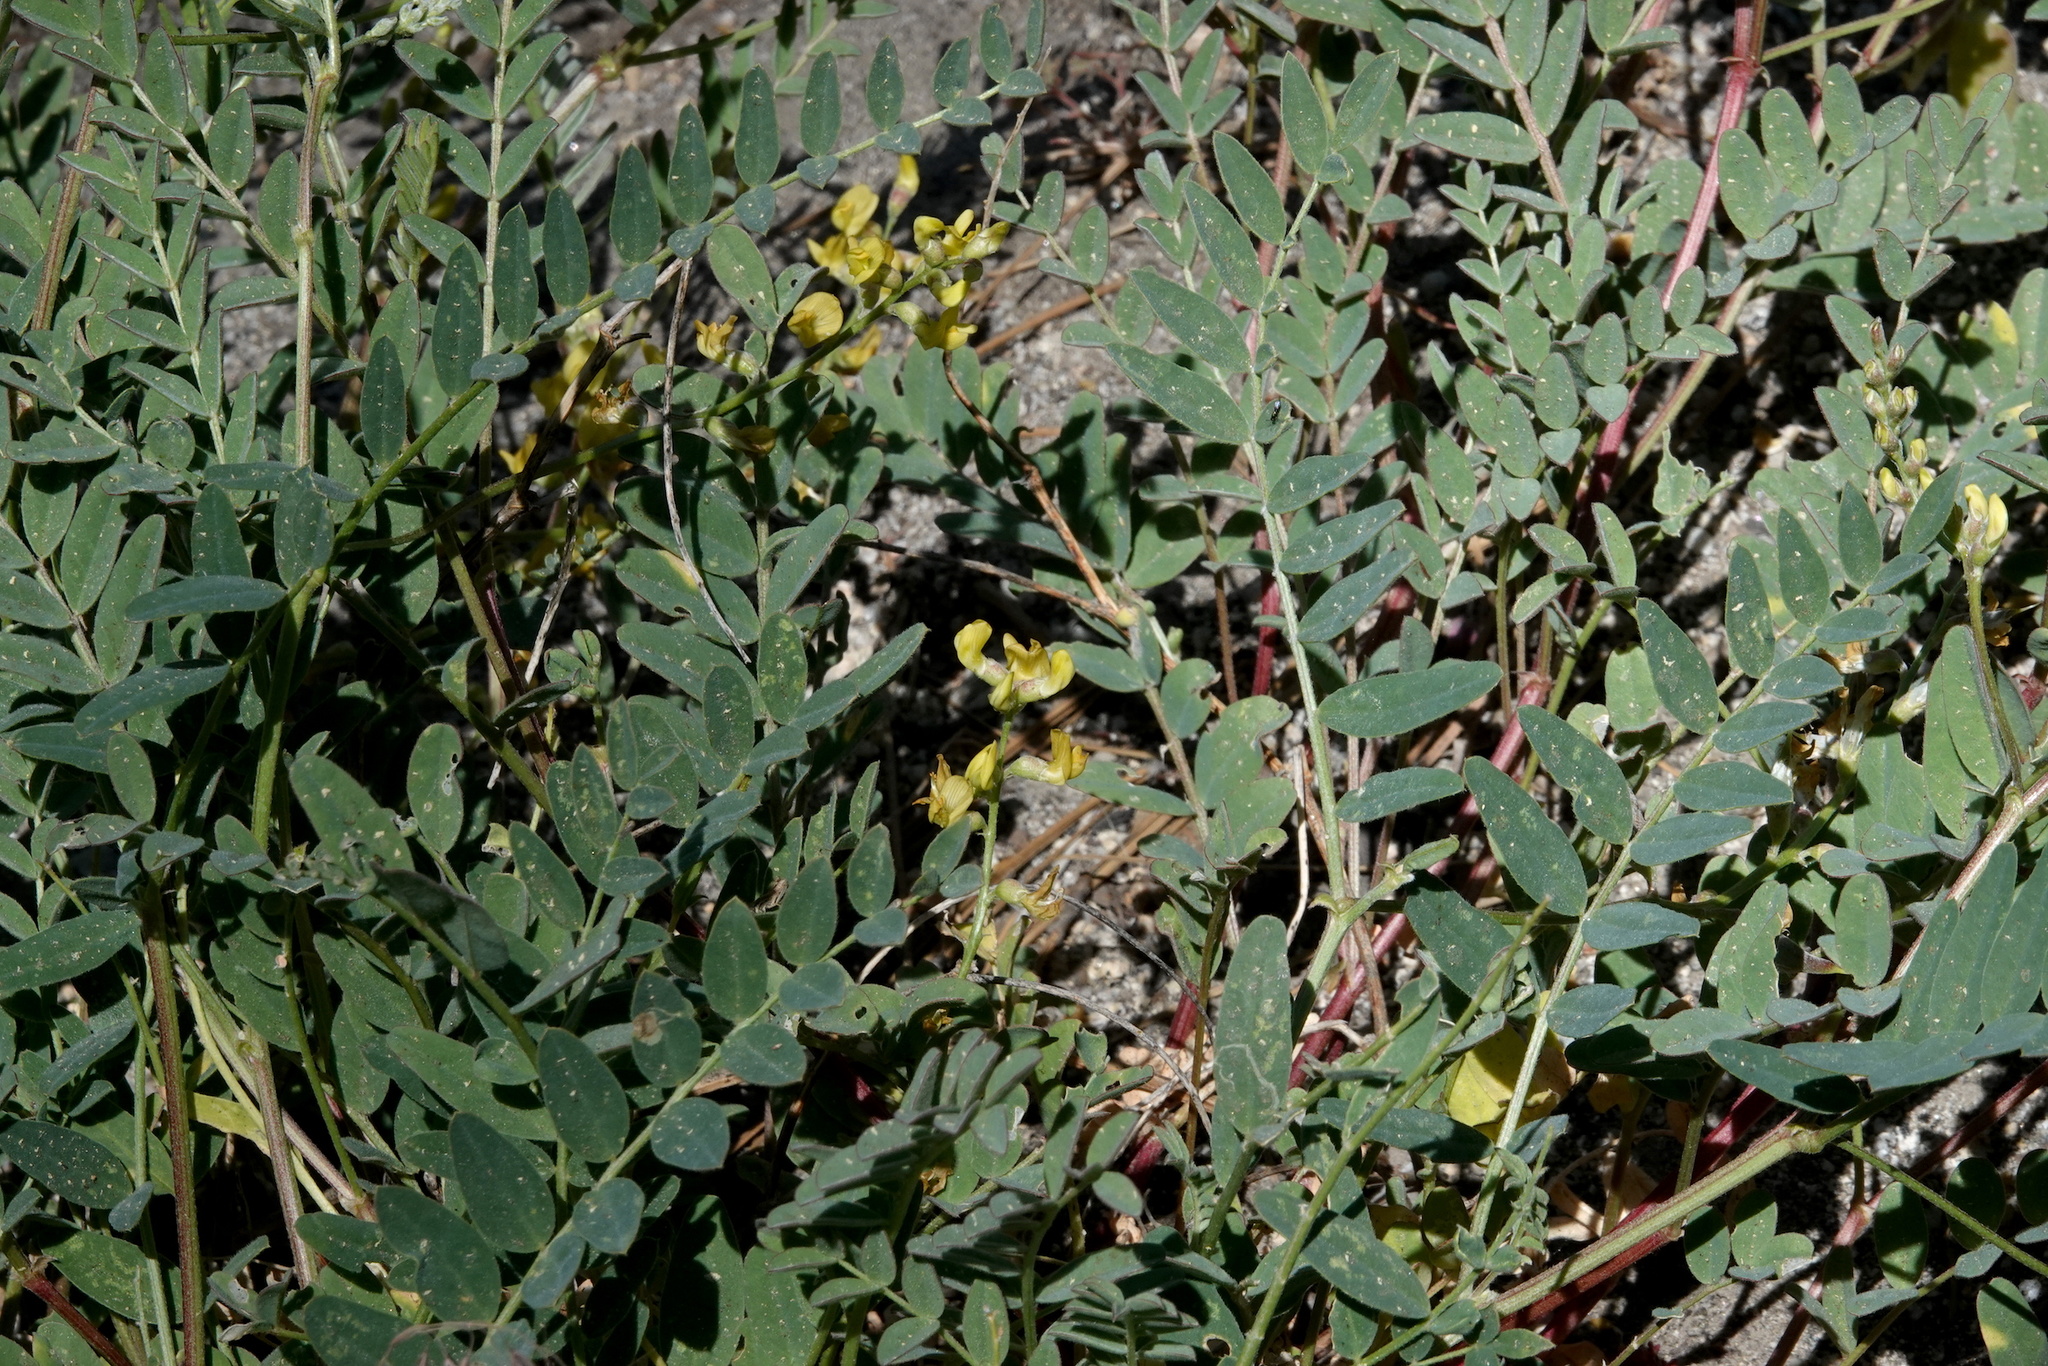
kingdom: Plantae
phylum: Tracheophyta
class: Magnoliopsida
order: Fabales
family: Fabaceae
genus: Astragalus
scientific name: Astragalus douglasii
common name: Jacumba milkvetch
